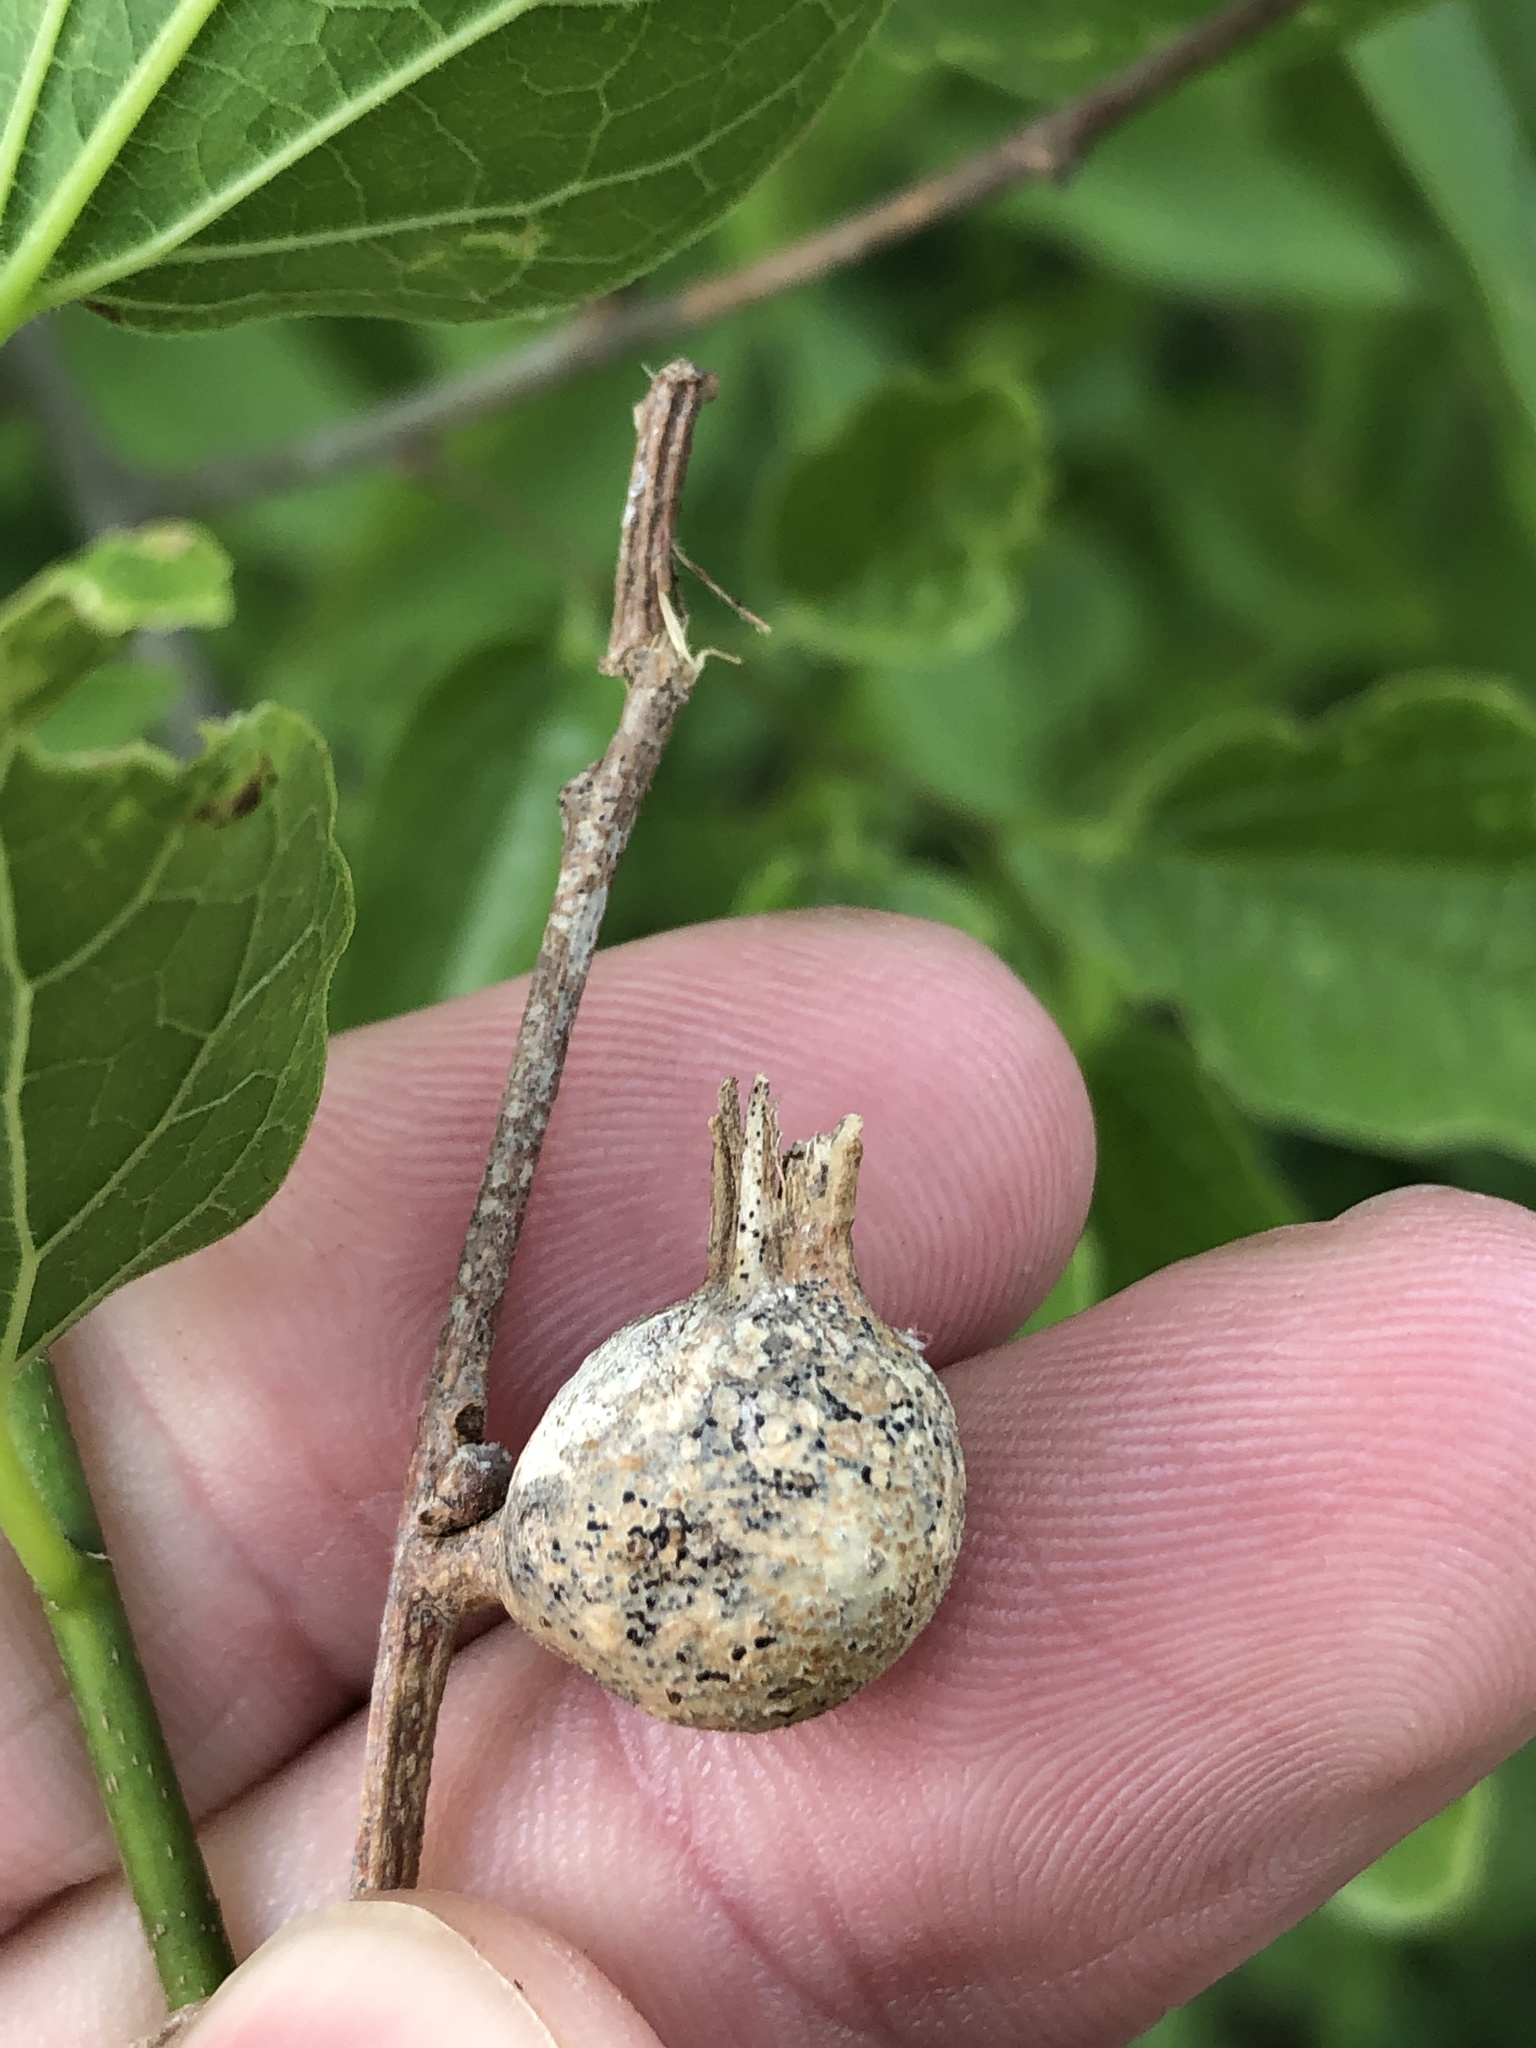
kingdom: Animalia
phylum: Arthropoda
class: Insecta
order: Hemiptera
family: Aphalaridae
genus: Pachypsylla
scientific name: Pachypsylla venusta
